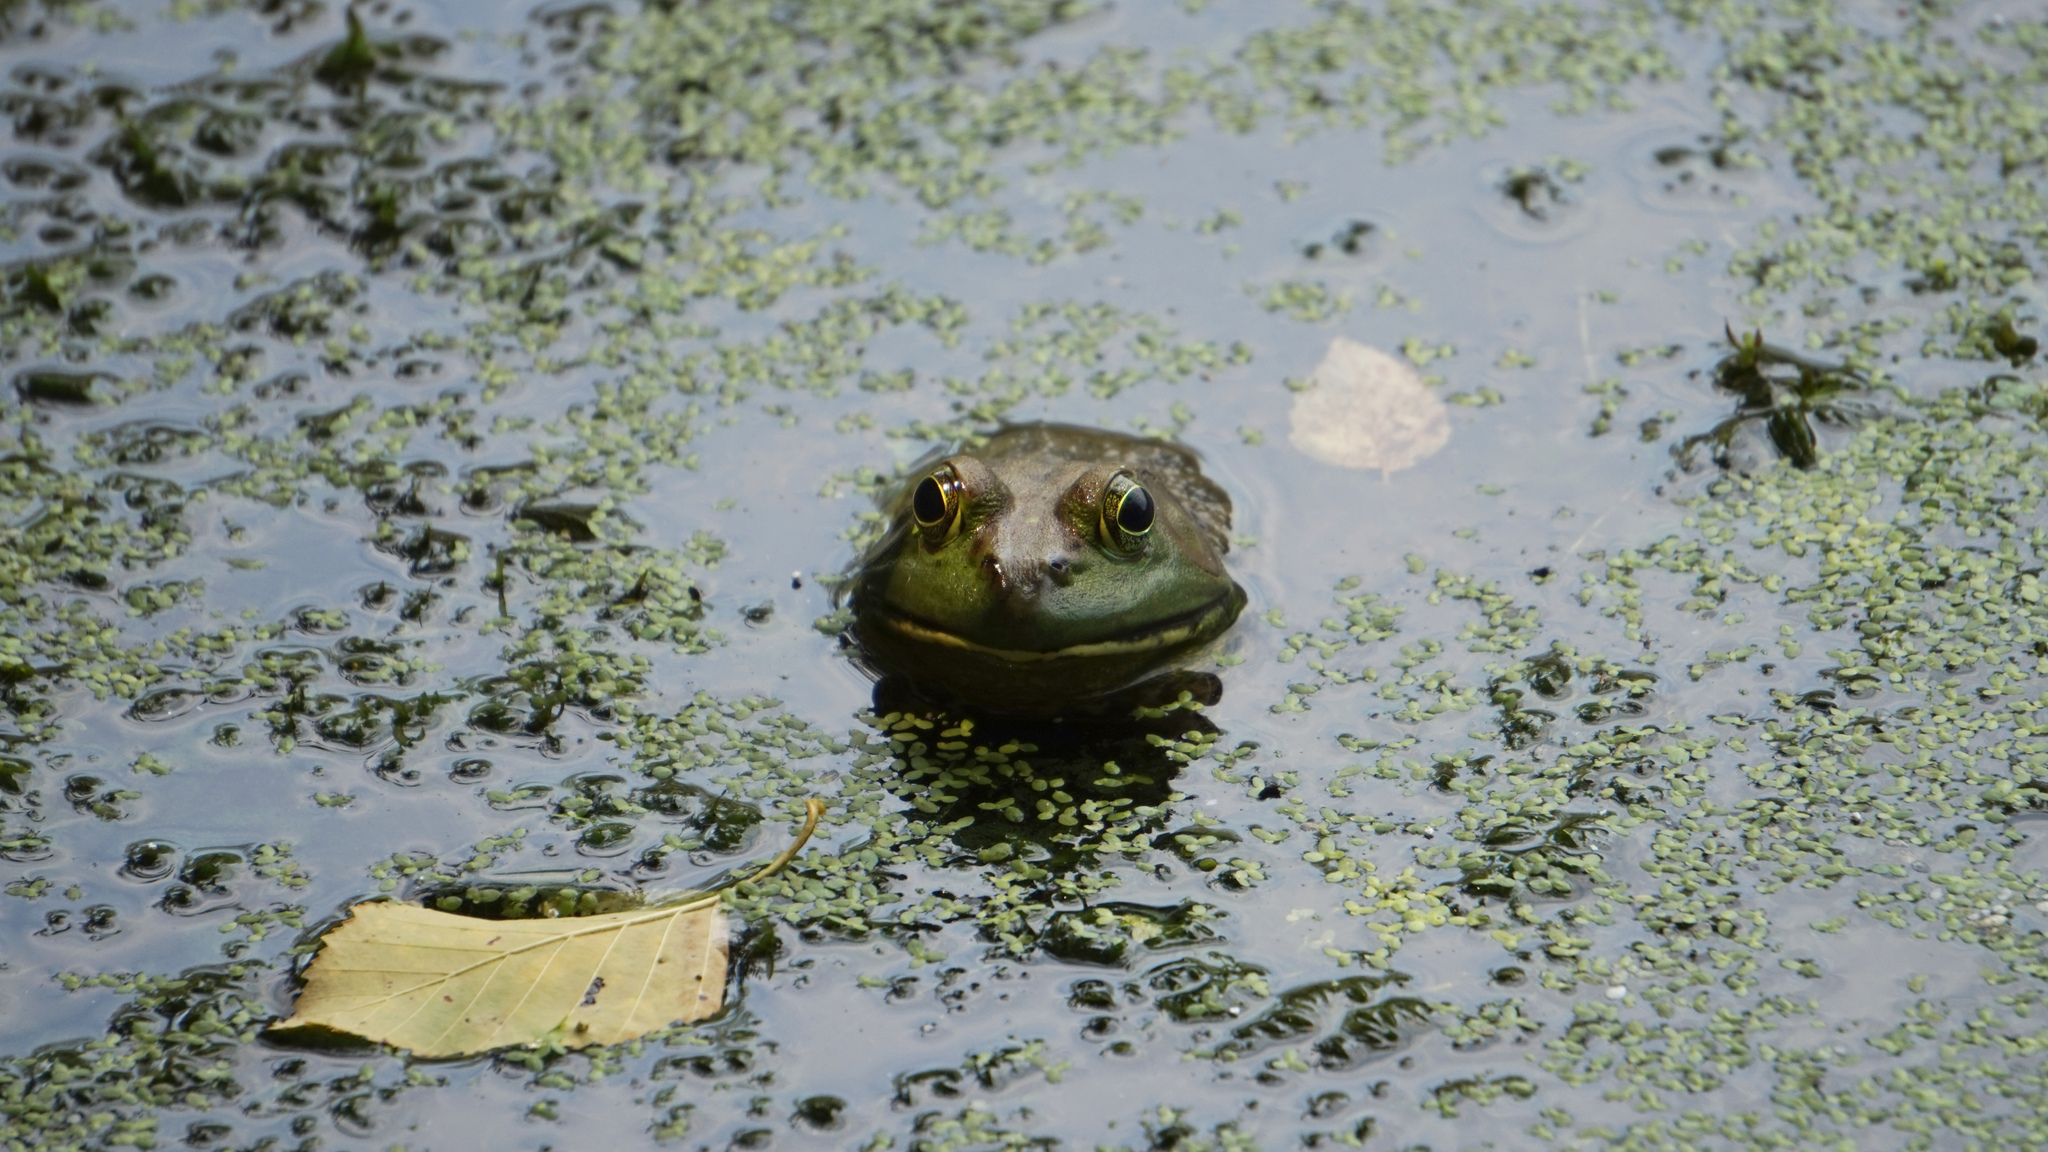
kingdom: Animalia
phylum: Chordata
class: Amphibia
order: Anura
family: Ranidae
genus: Lithobates
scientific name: Lithobates catesbeianus
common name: American bullfrog
